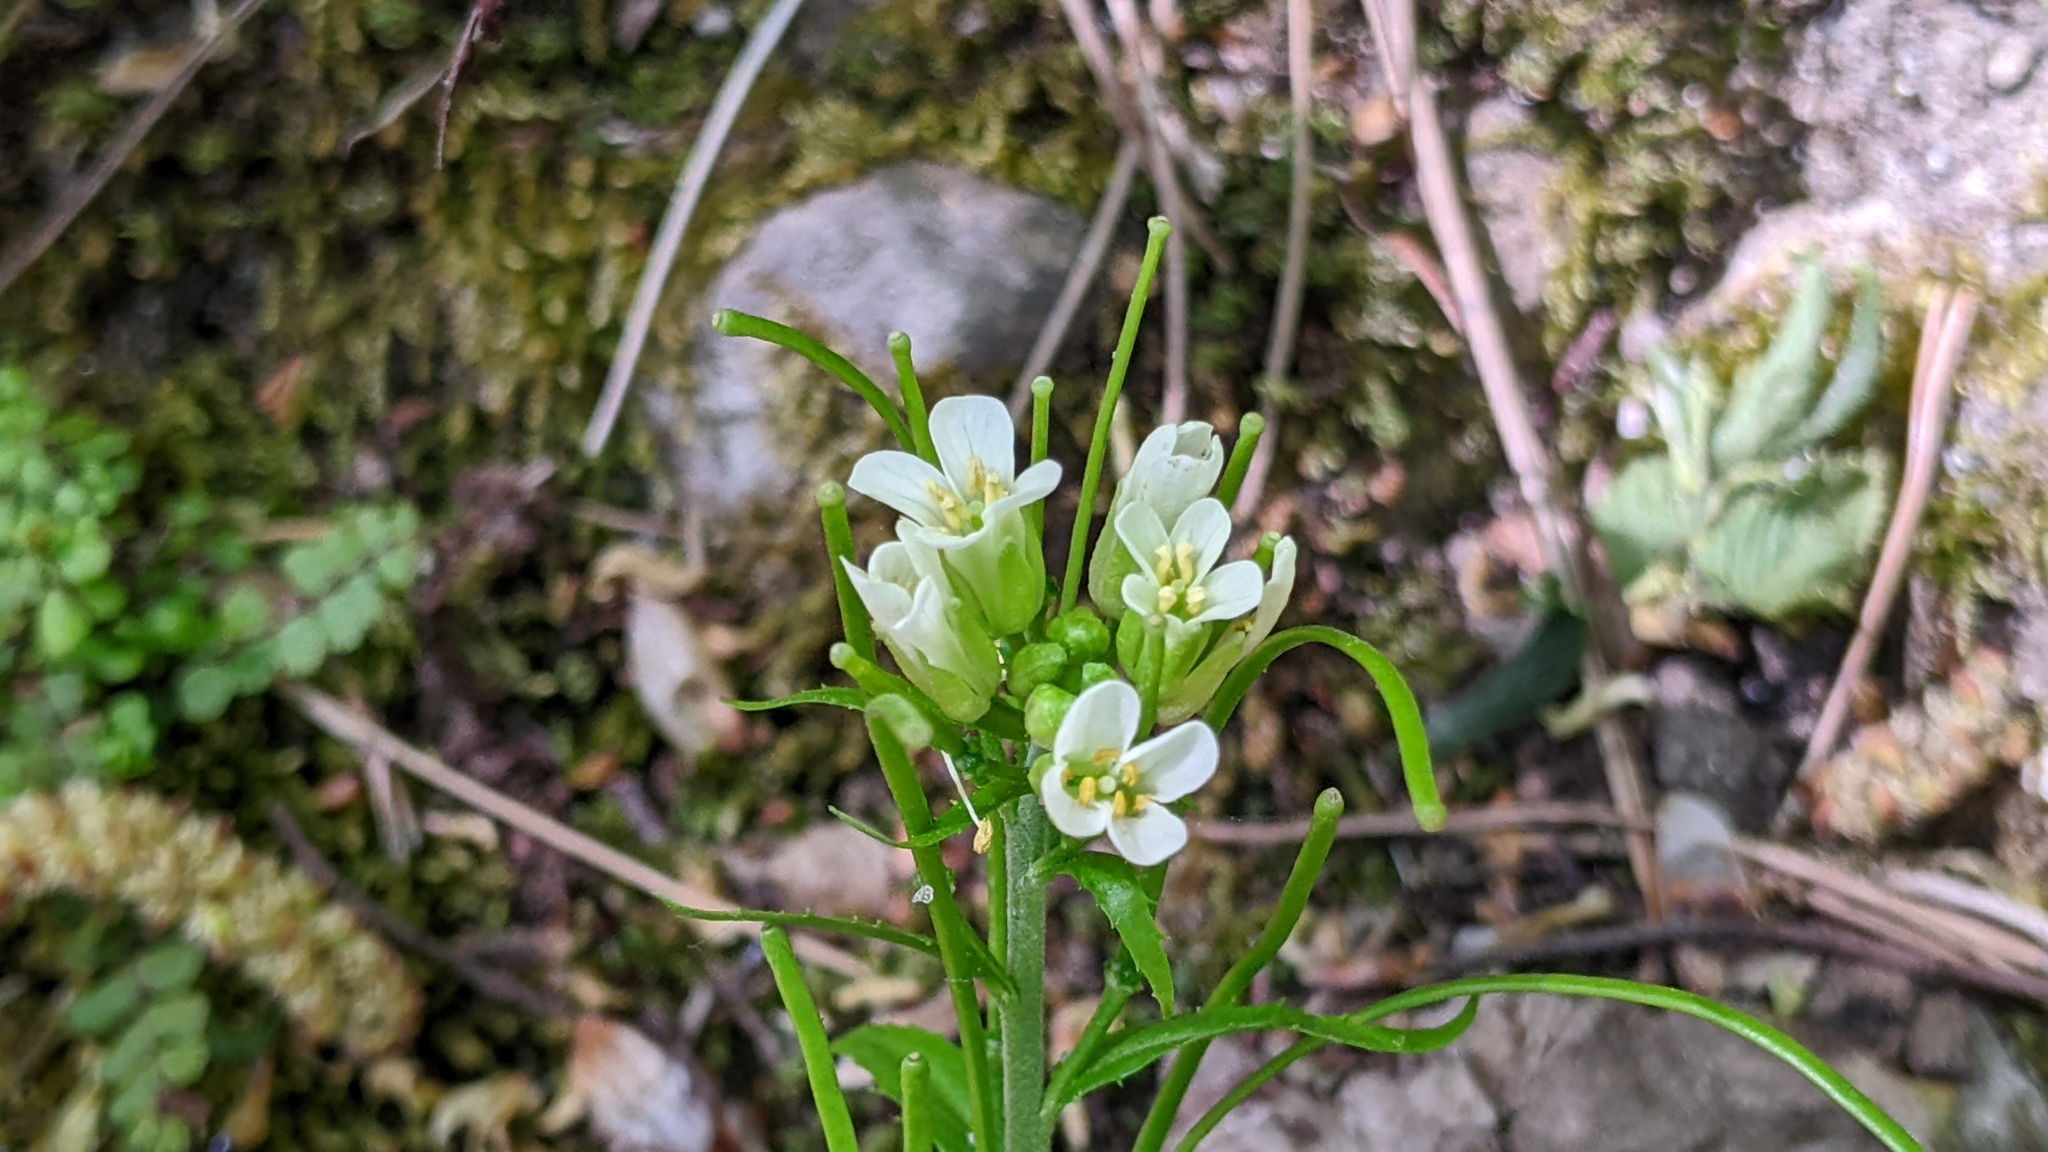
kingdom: Plantae
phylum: Tracheophyta
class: Magnoliopsida
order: Brassicales
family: Brassicaceae
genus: Pseudoturritis
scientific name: Pseudoturritis turrita
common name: Tower cress
